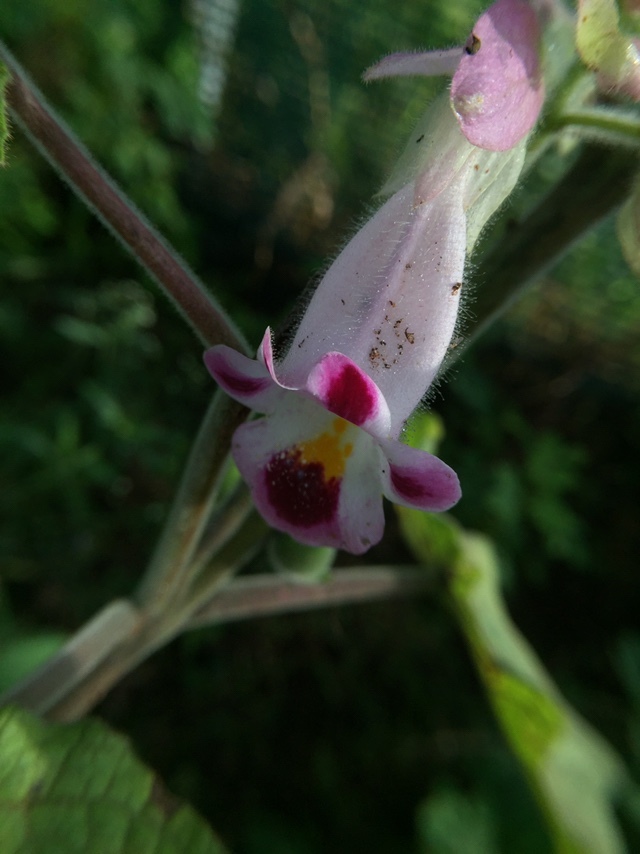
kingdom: Plantae
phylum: Tracheophyta
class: Magnoliopsida
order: Lamiales
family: Martyniaceae
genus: Martynia
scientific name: Martynia annua
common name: Tiger's-claw
